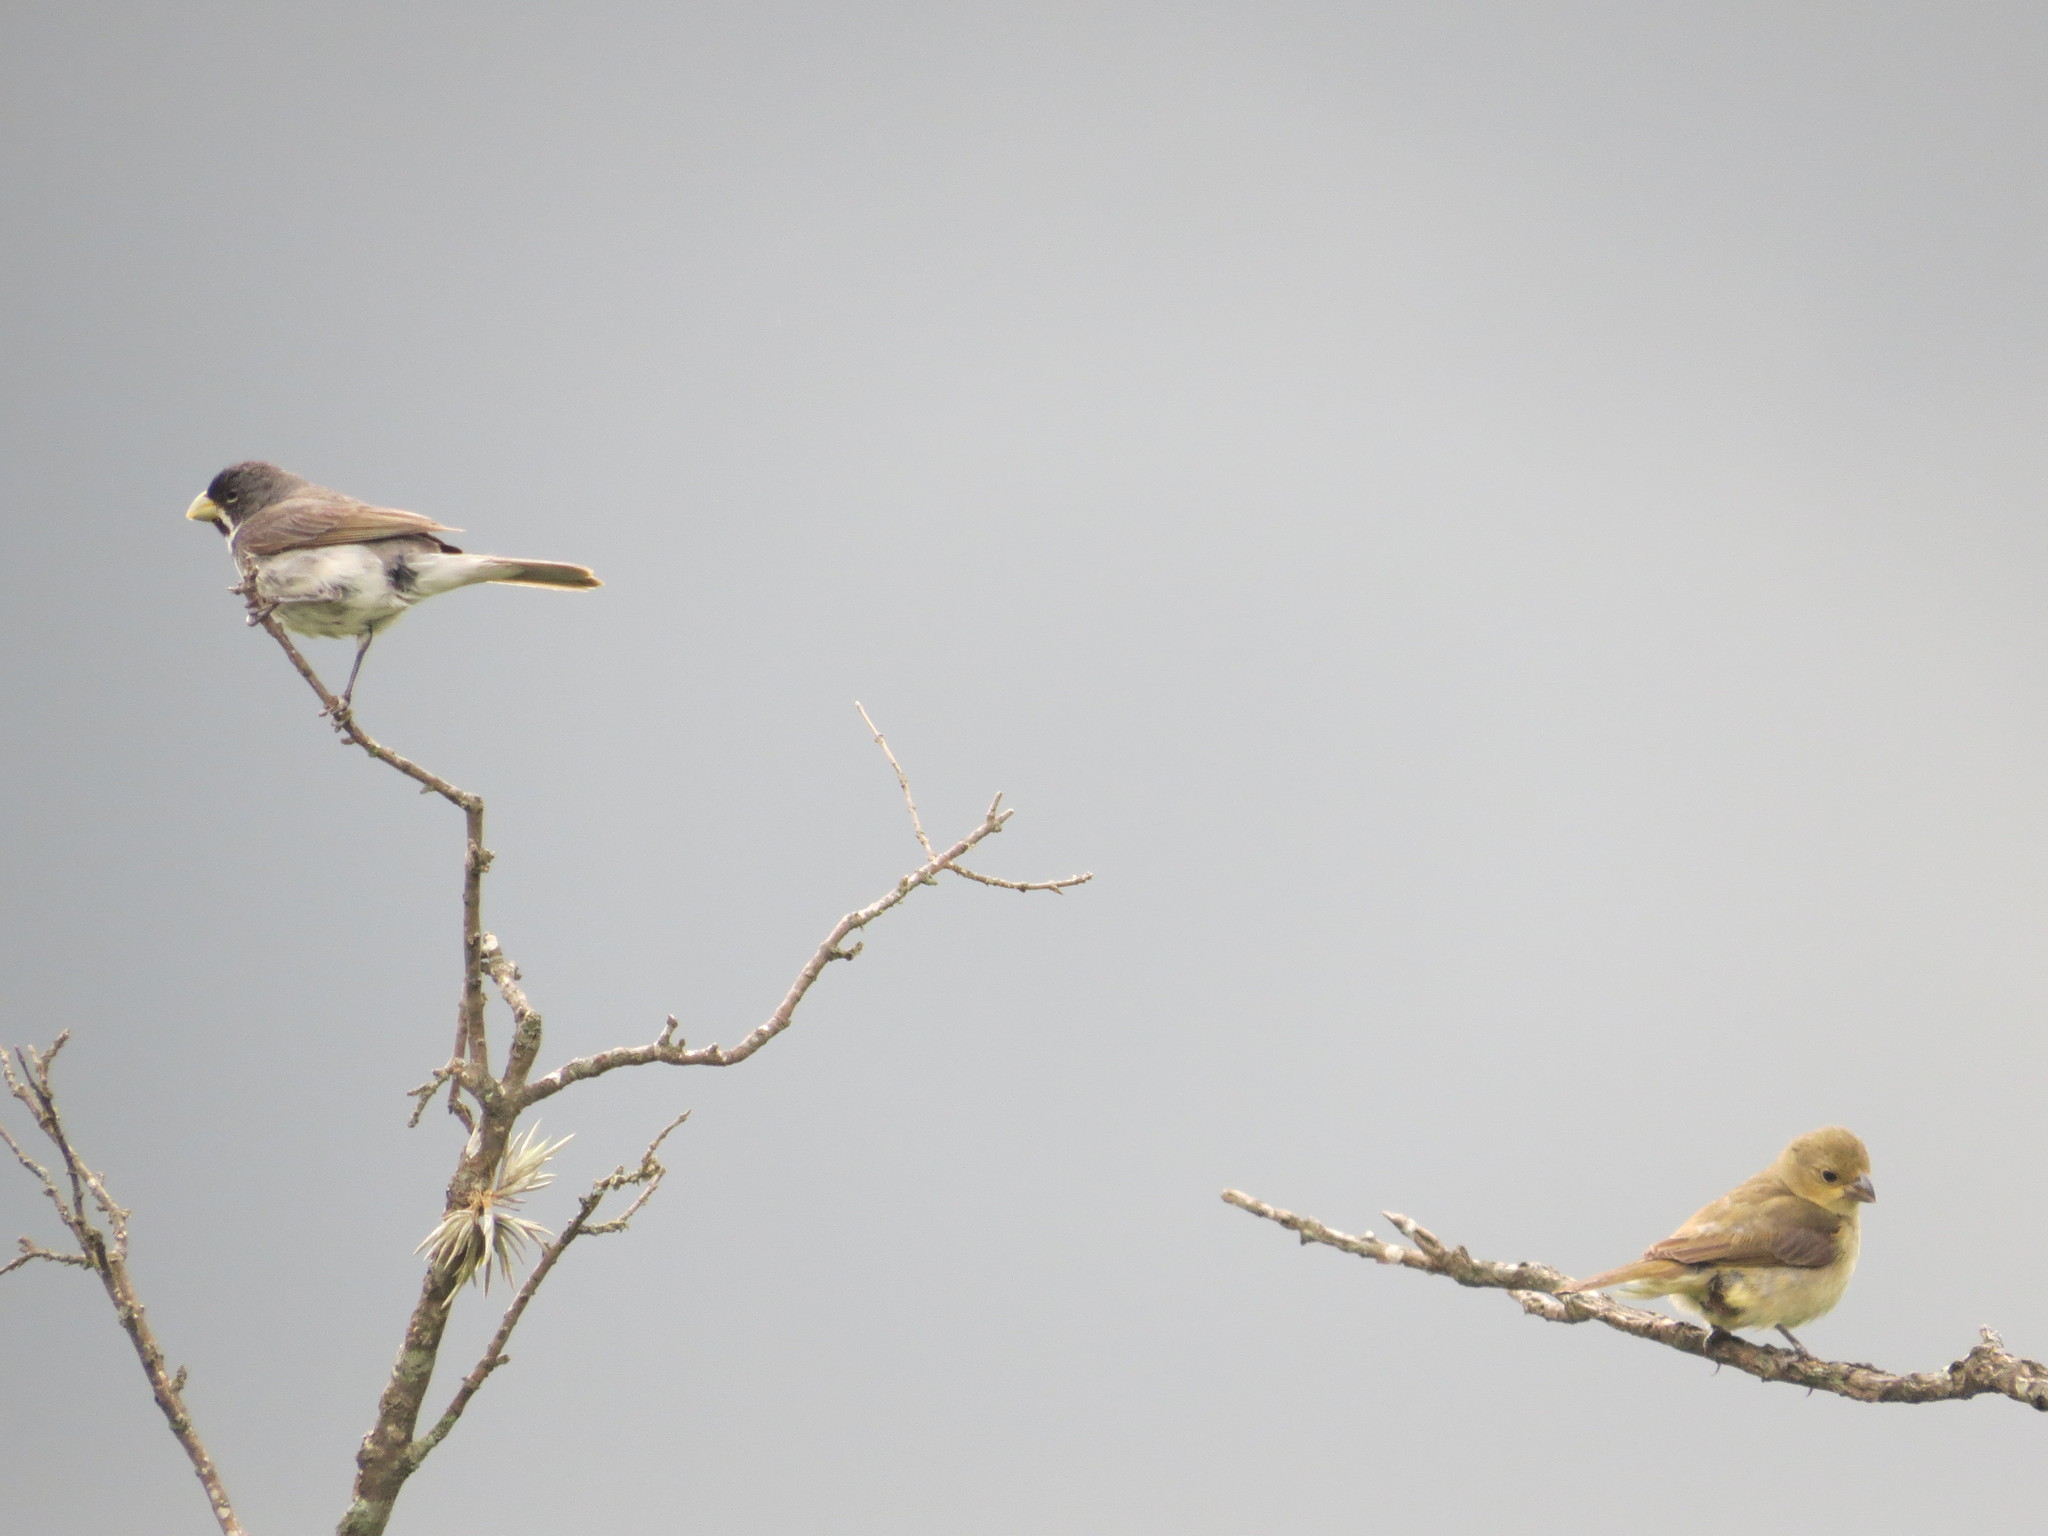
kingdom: Animalia
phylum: Chordata
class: Aves
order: Passeriformes
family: Thraupidae
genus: Sporophila
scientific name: Sporophila caerulescens
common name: Double-collared seedeater
